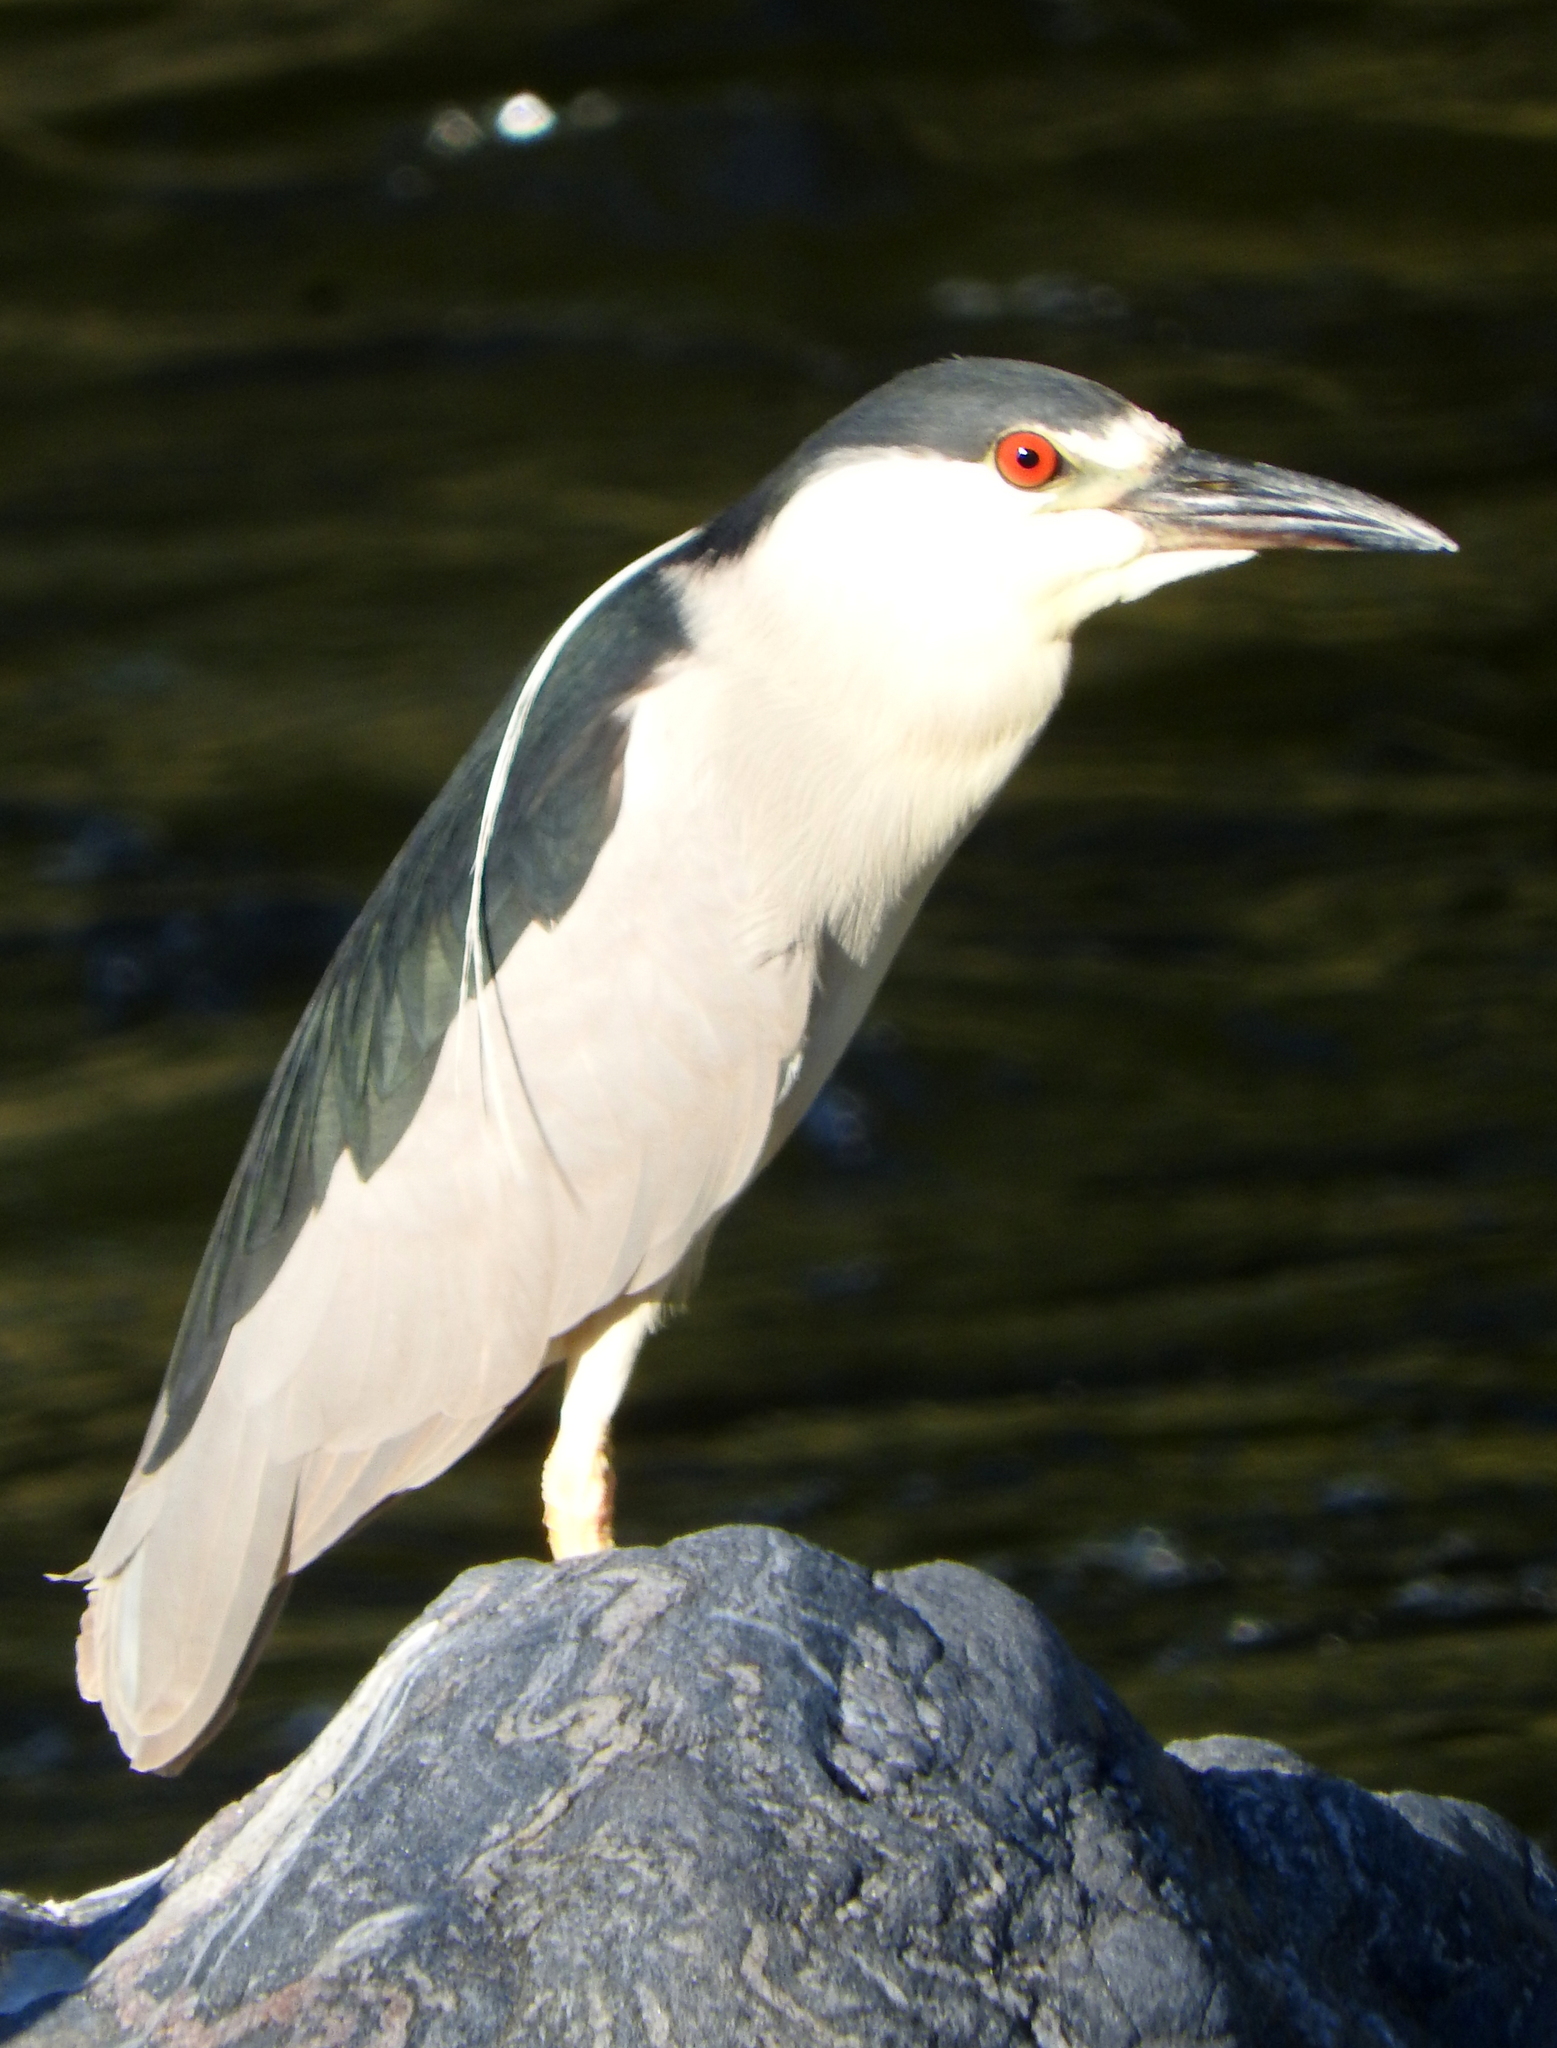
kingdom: Animalia
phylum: Chordata
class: Aves
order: Pelecaniformes
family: Ardeidae
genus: Nycticorax
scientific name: Nycticorax nycticorax
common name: Black-crowned night heron
